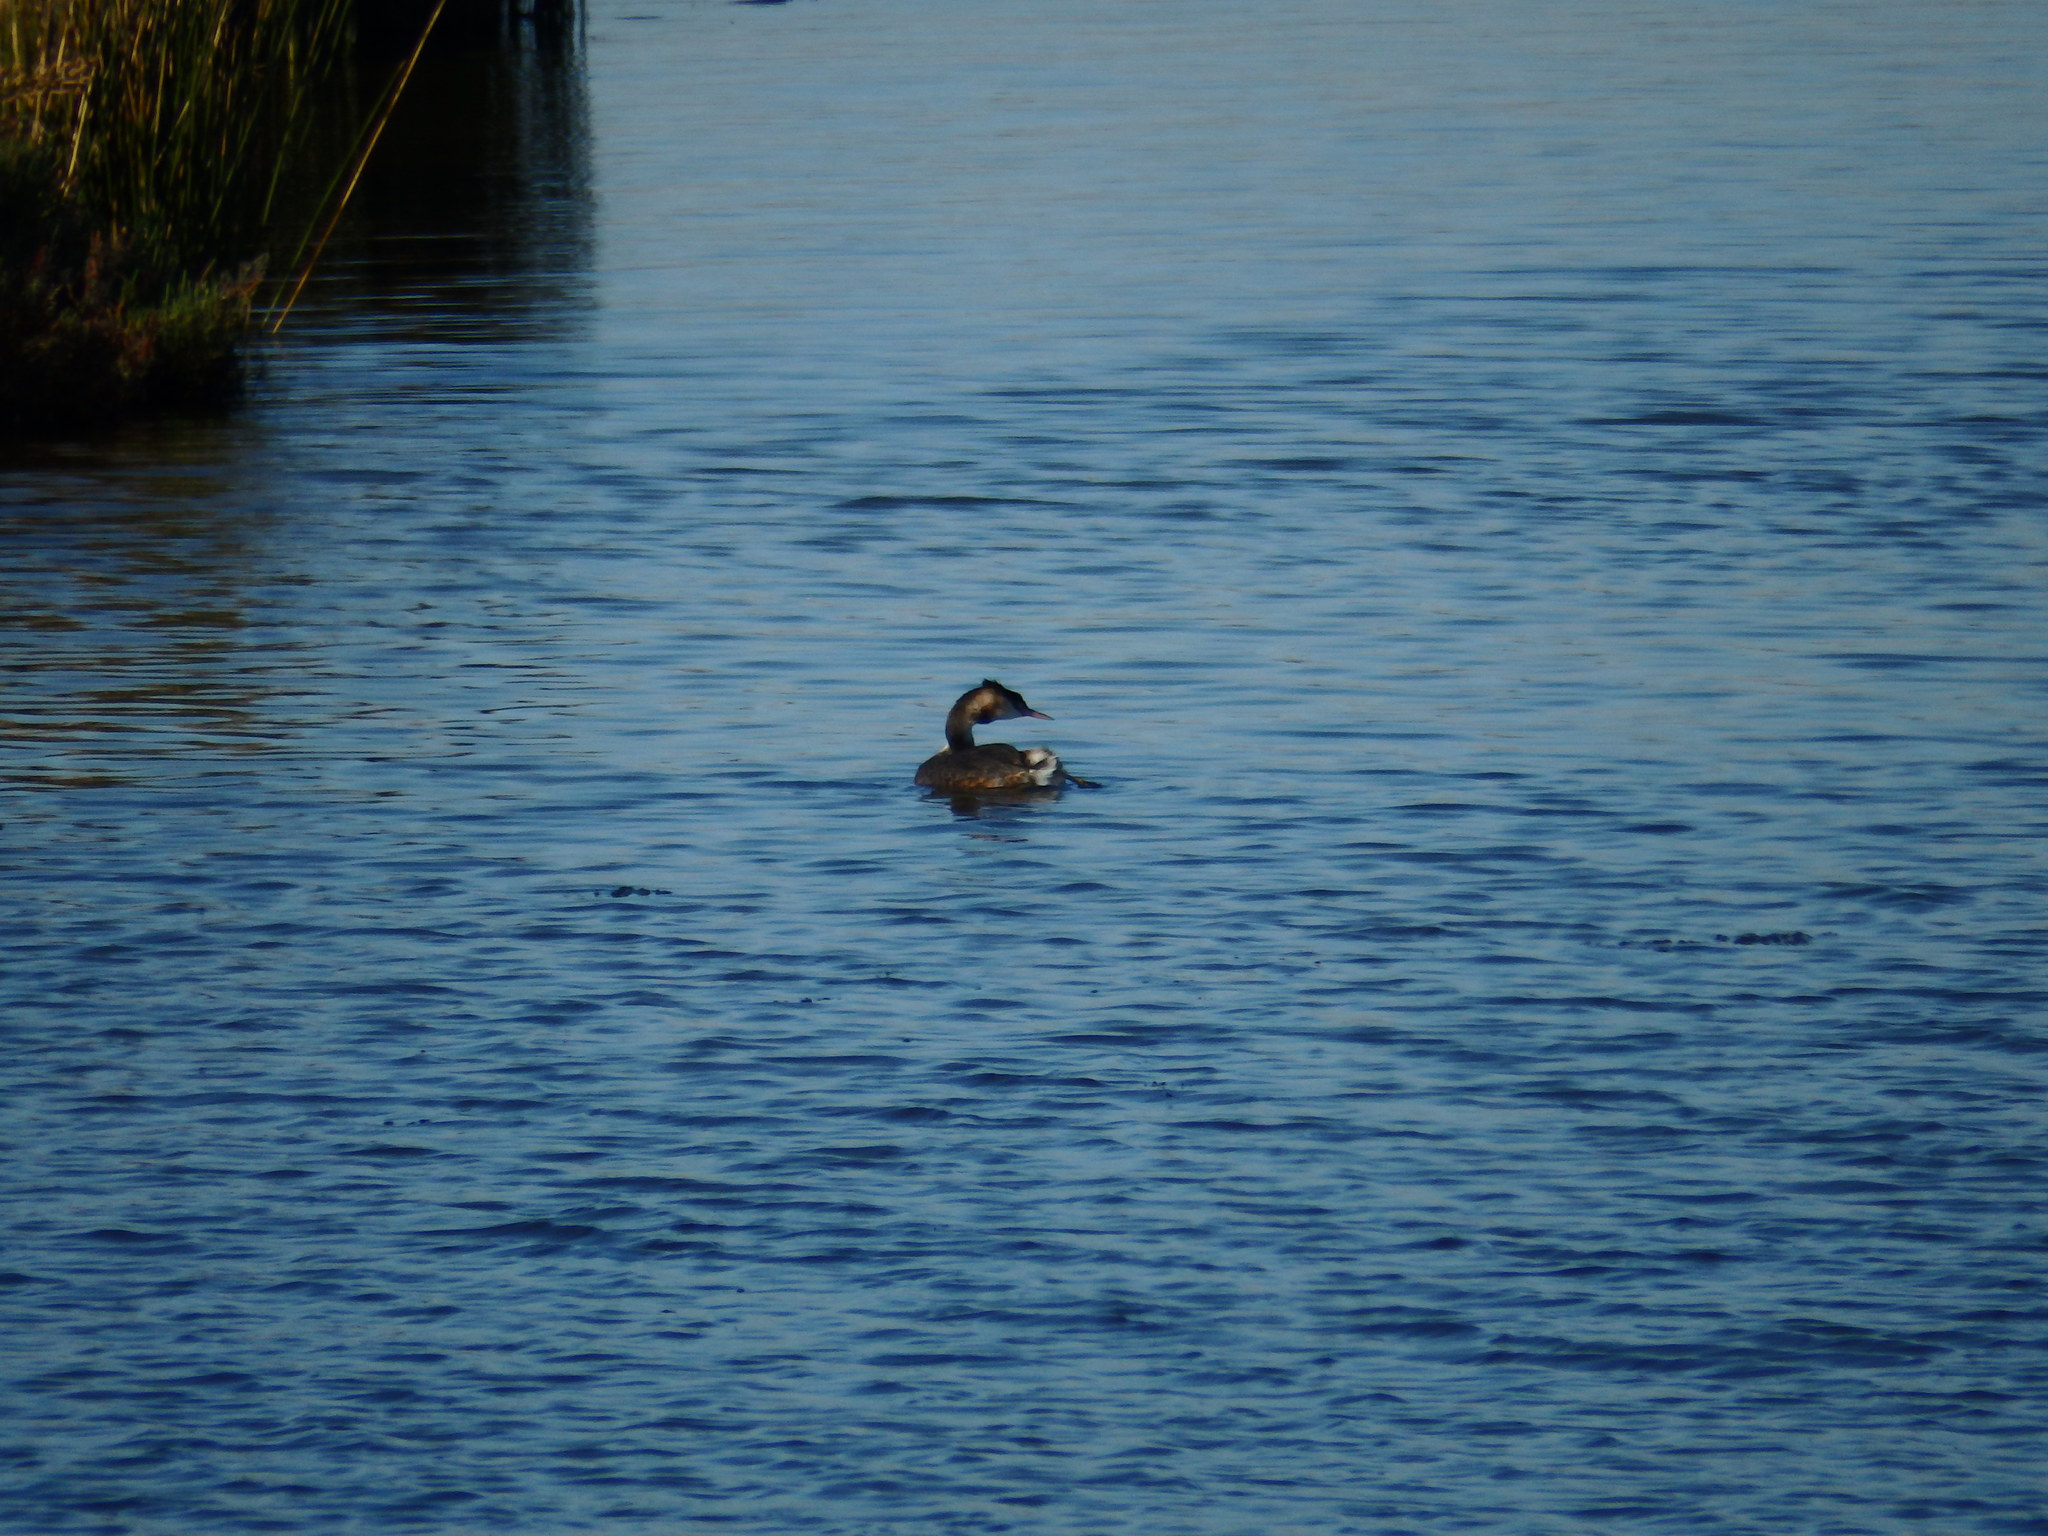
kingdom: Animalia
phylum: Chordata
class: Aves
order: Podicipediformes
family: Podicipedidae
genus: Podiceps
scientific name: Podiceps cristatus
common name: Great crested grebe
